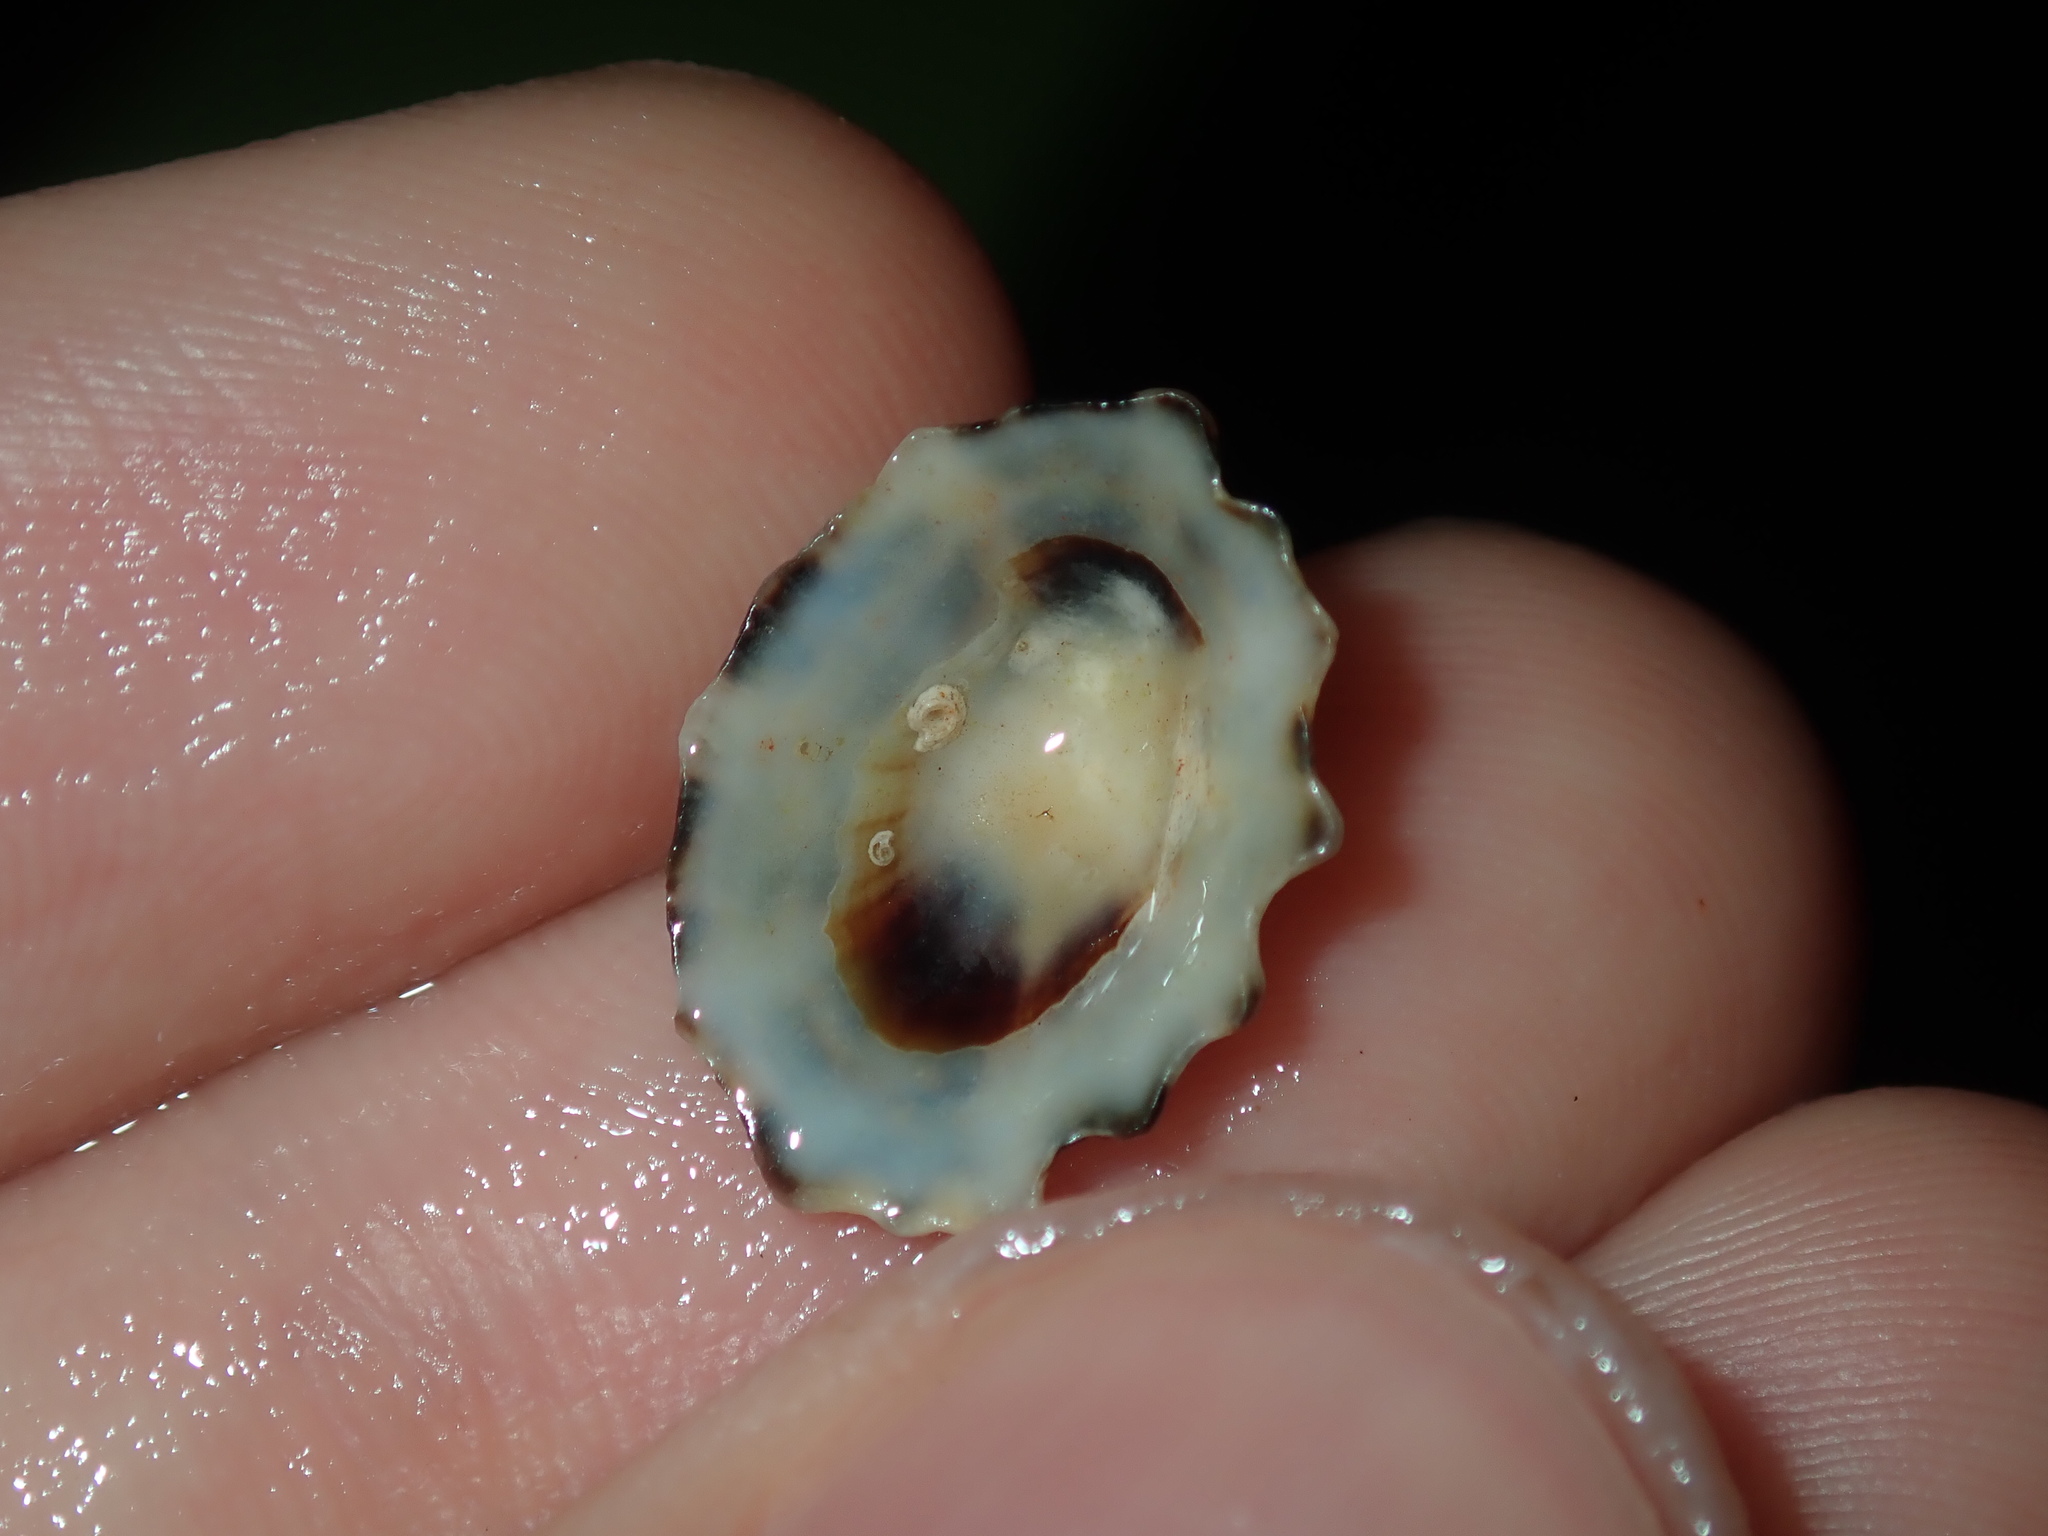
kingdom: Animalia
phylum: Mollusca
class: Gastropoda
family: Lottiidae
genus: Patelloida
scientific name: Patelloida alticostata
